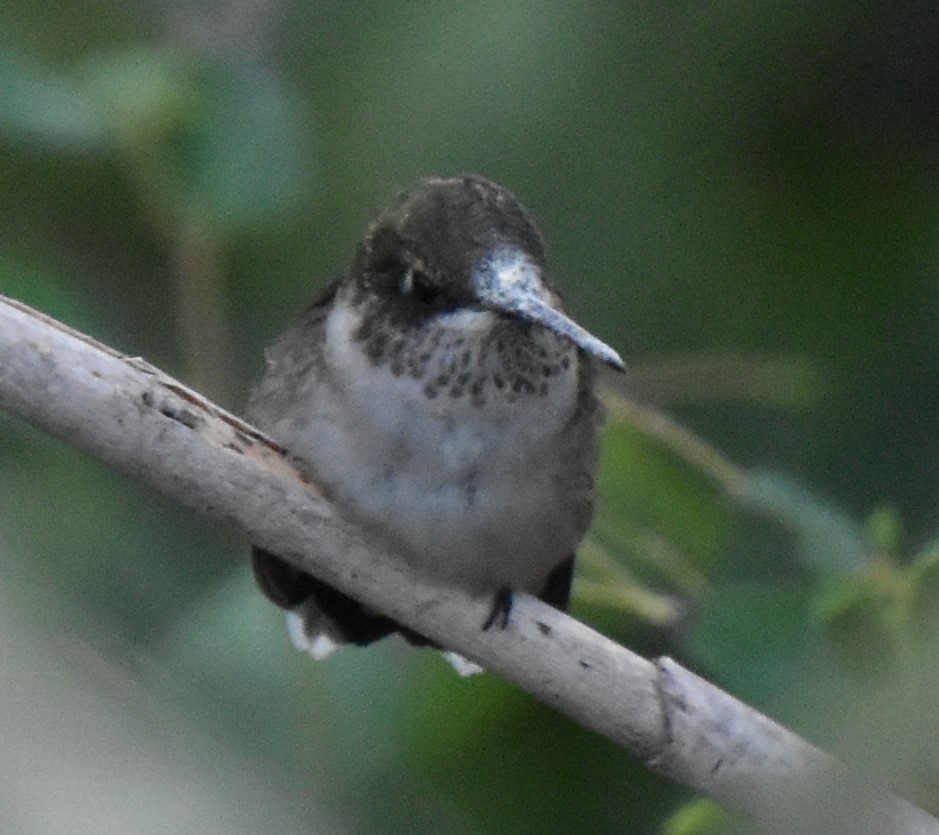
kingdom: Animalia
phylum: Chordata
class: Aves
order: Apodiformes
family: Trochilidae
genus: Archilochus
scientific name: Archilochus colubris
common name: Ruby-throated hummingbird
